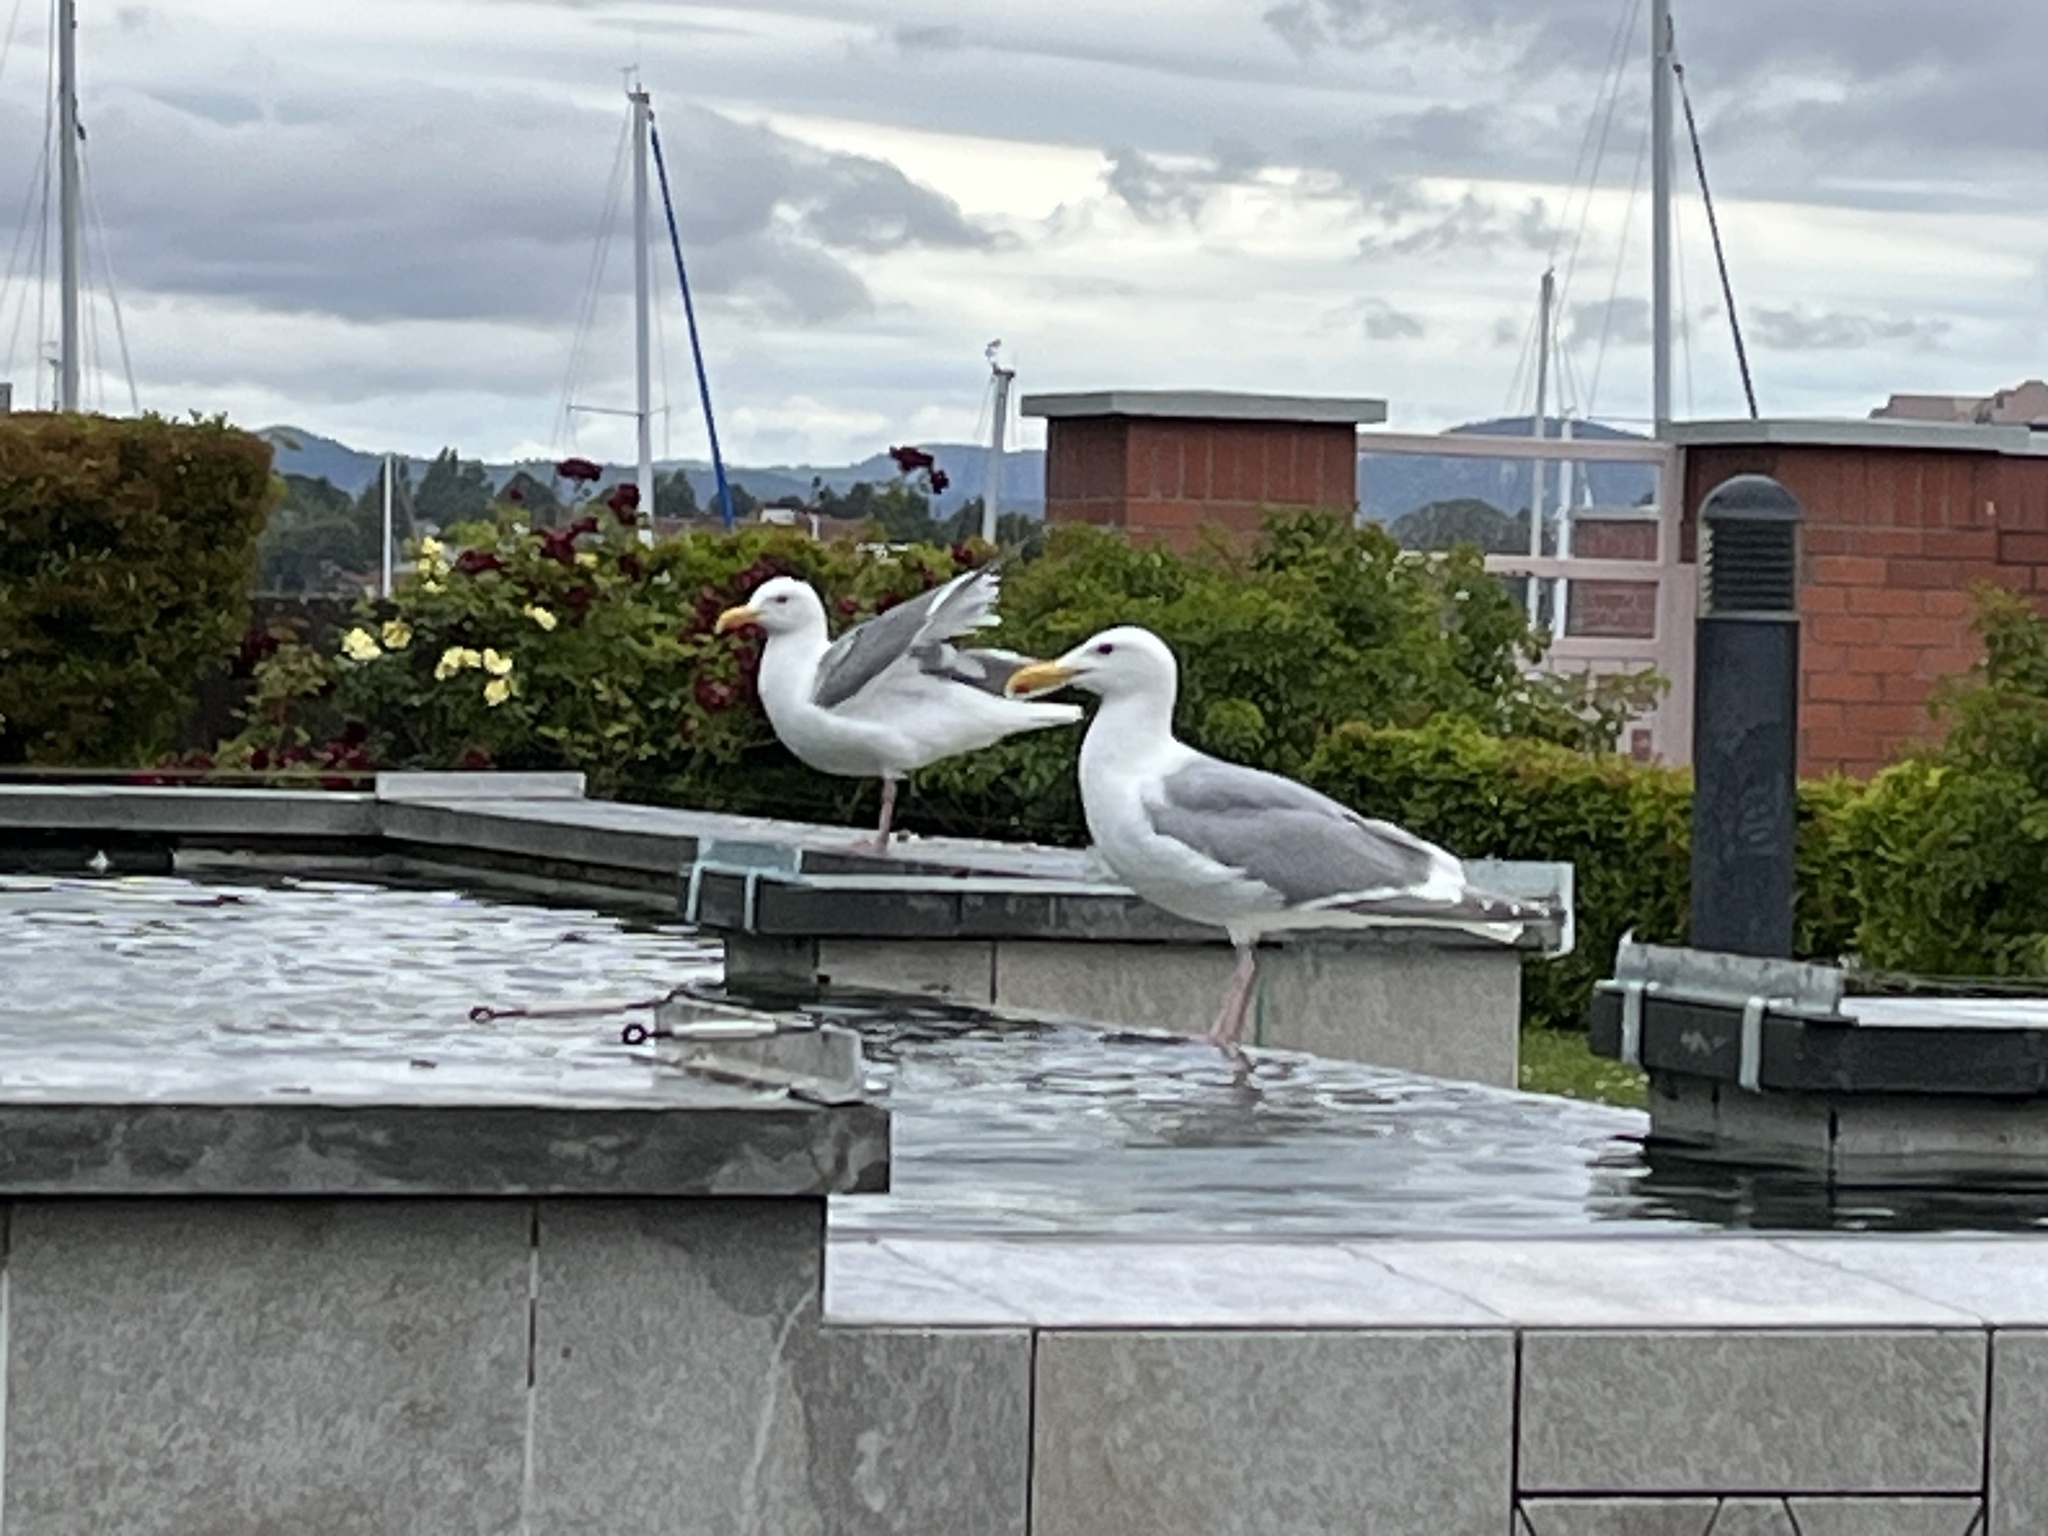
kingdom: Animalia
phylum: Chordata
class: Aves
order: Charadriiformes
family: Laridae
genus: Larus
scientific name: Larus
